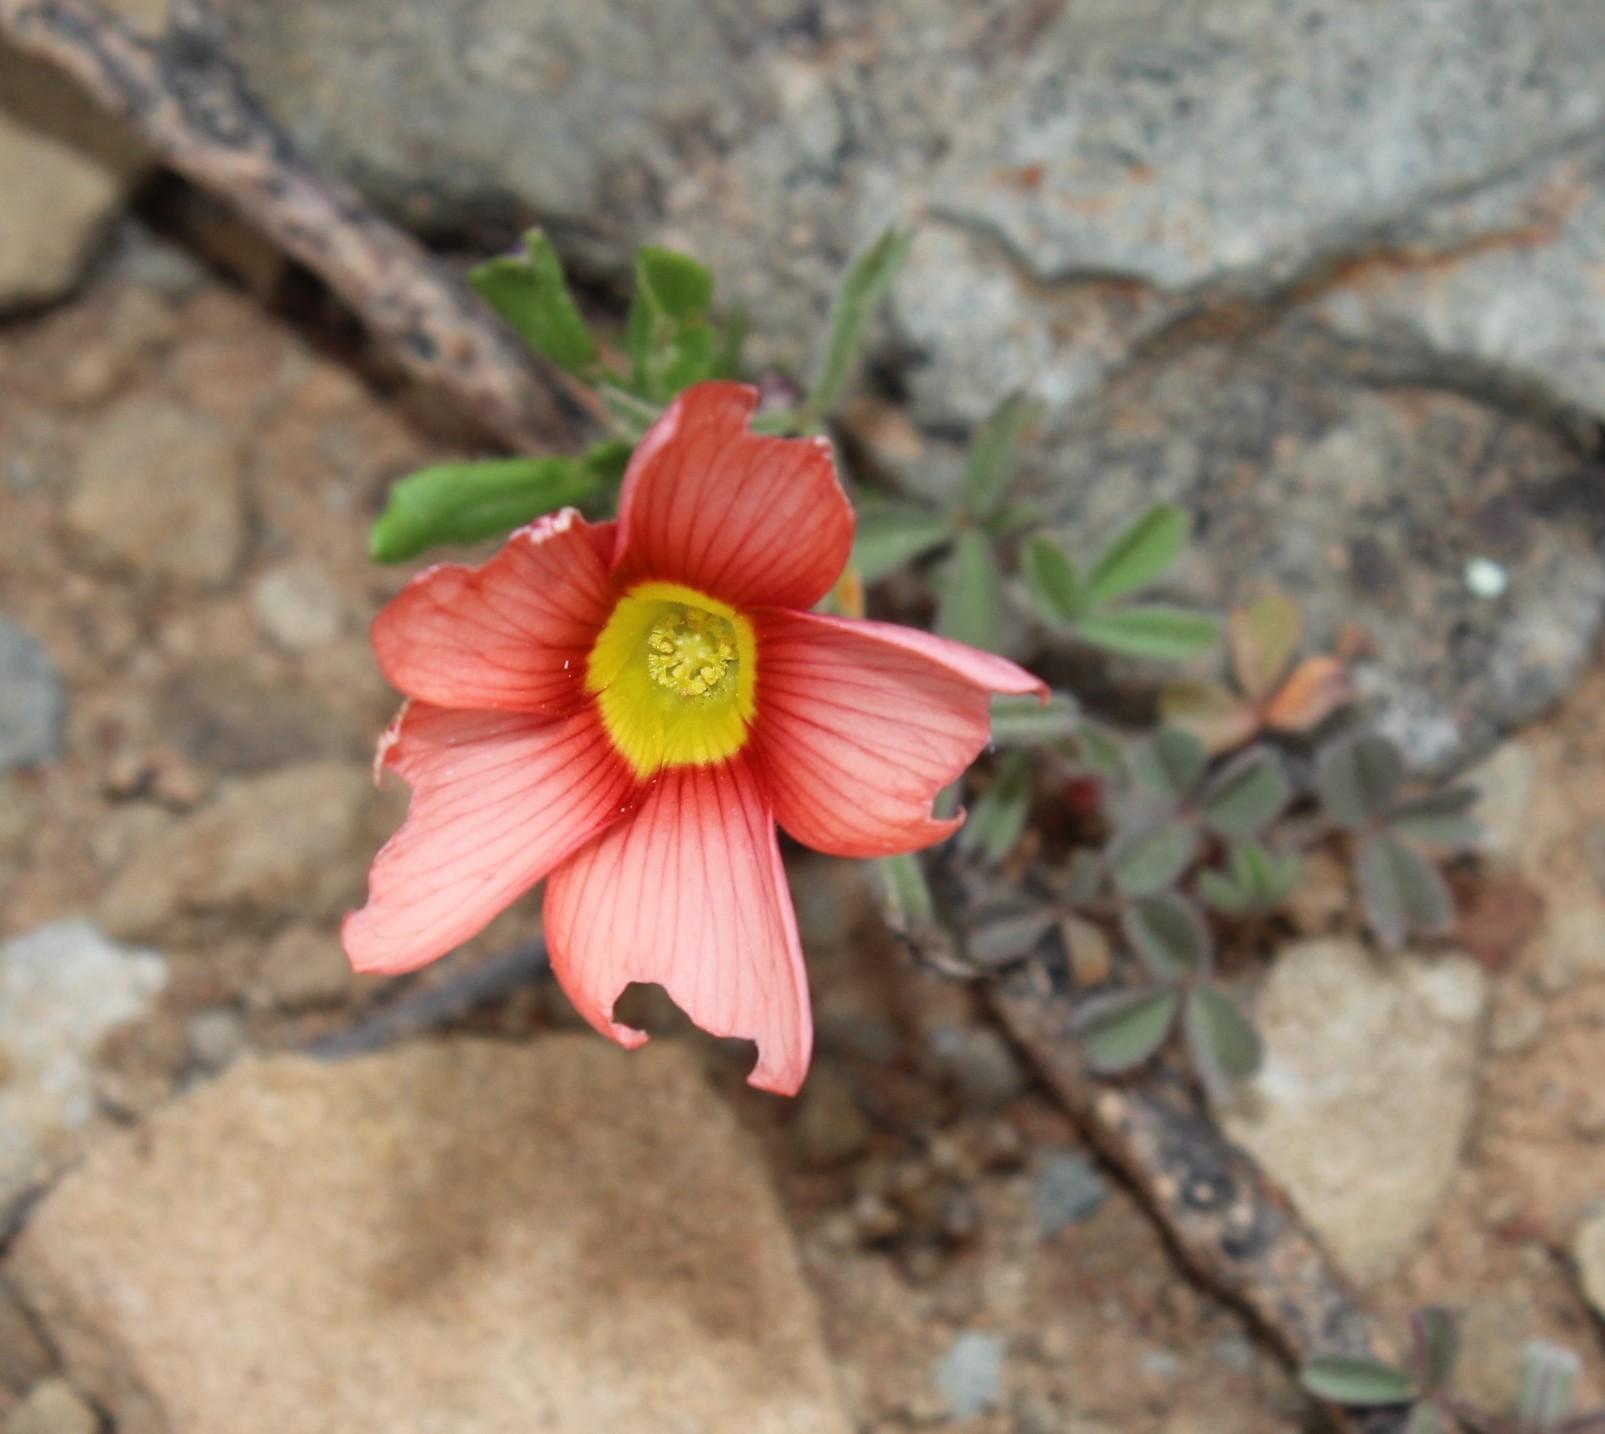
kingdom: Plantae
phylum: Tracheophyta
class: Magnoliopsida
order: Oxalidales
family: Oxalidaceae
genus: Oxalis
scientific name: Oxalis obtusa
